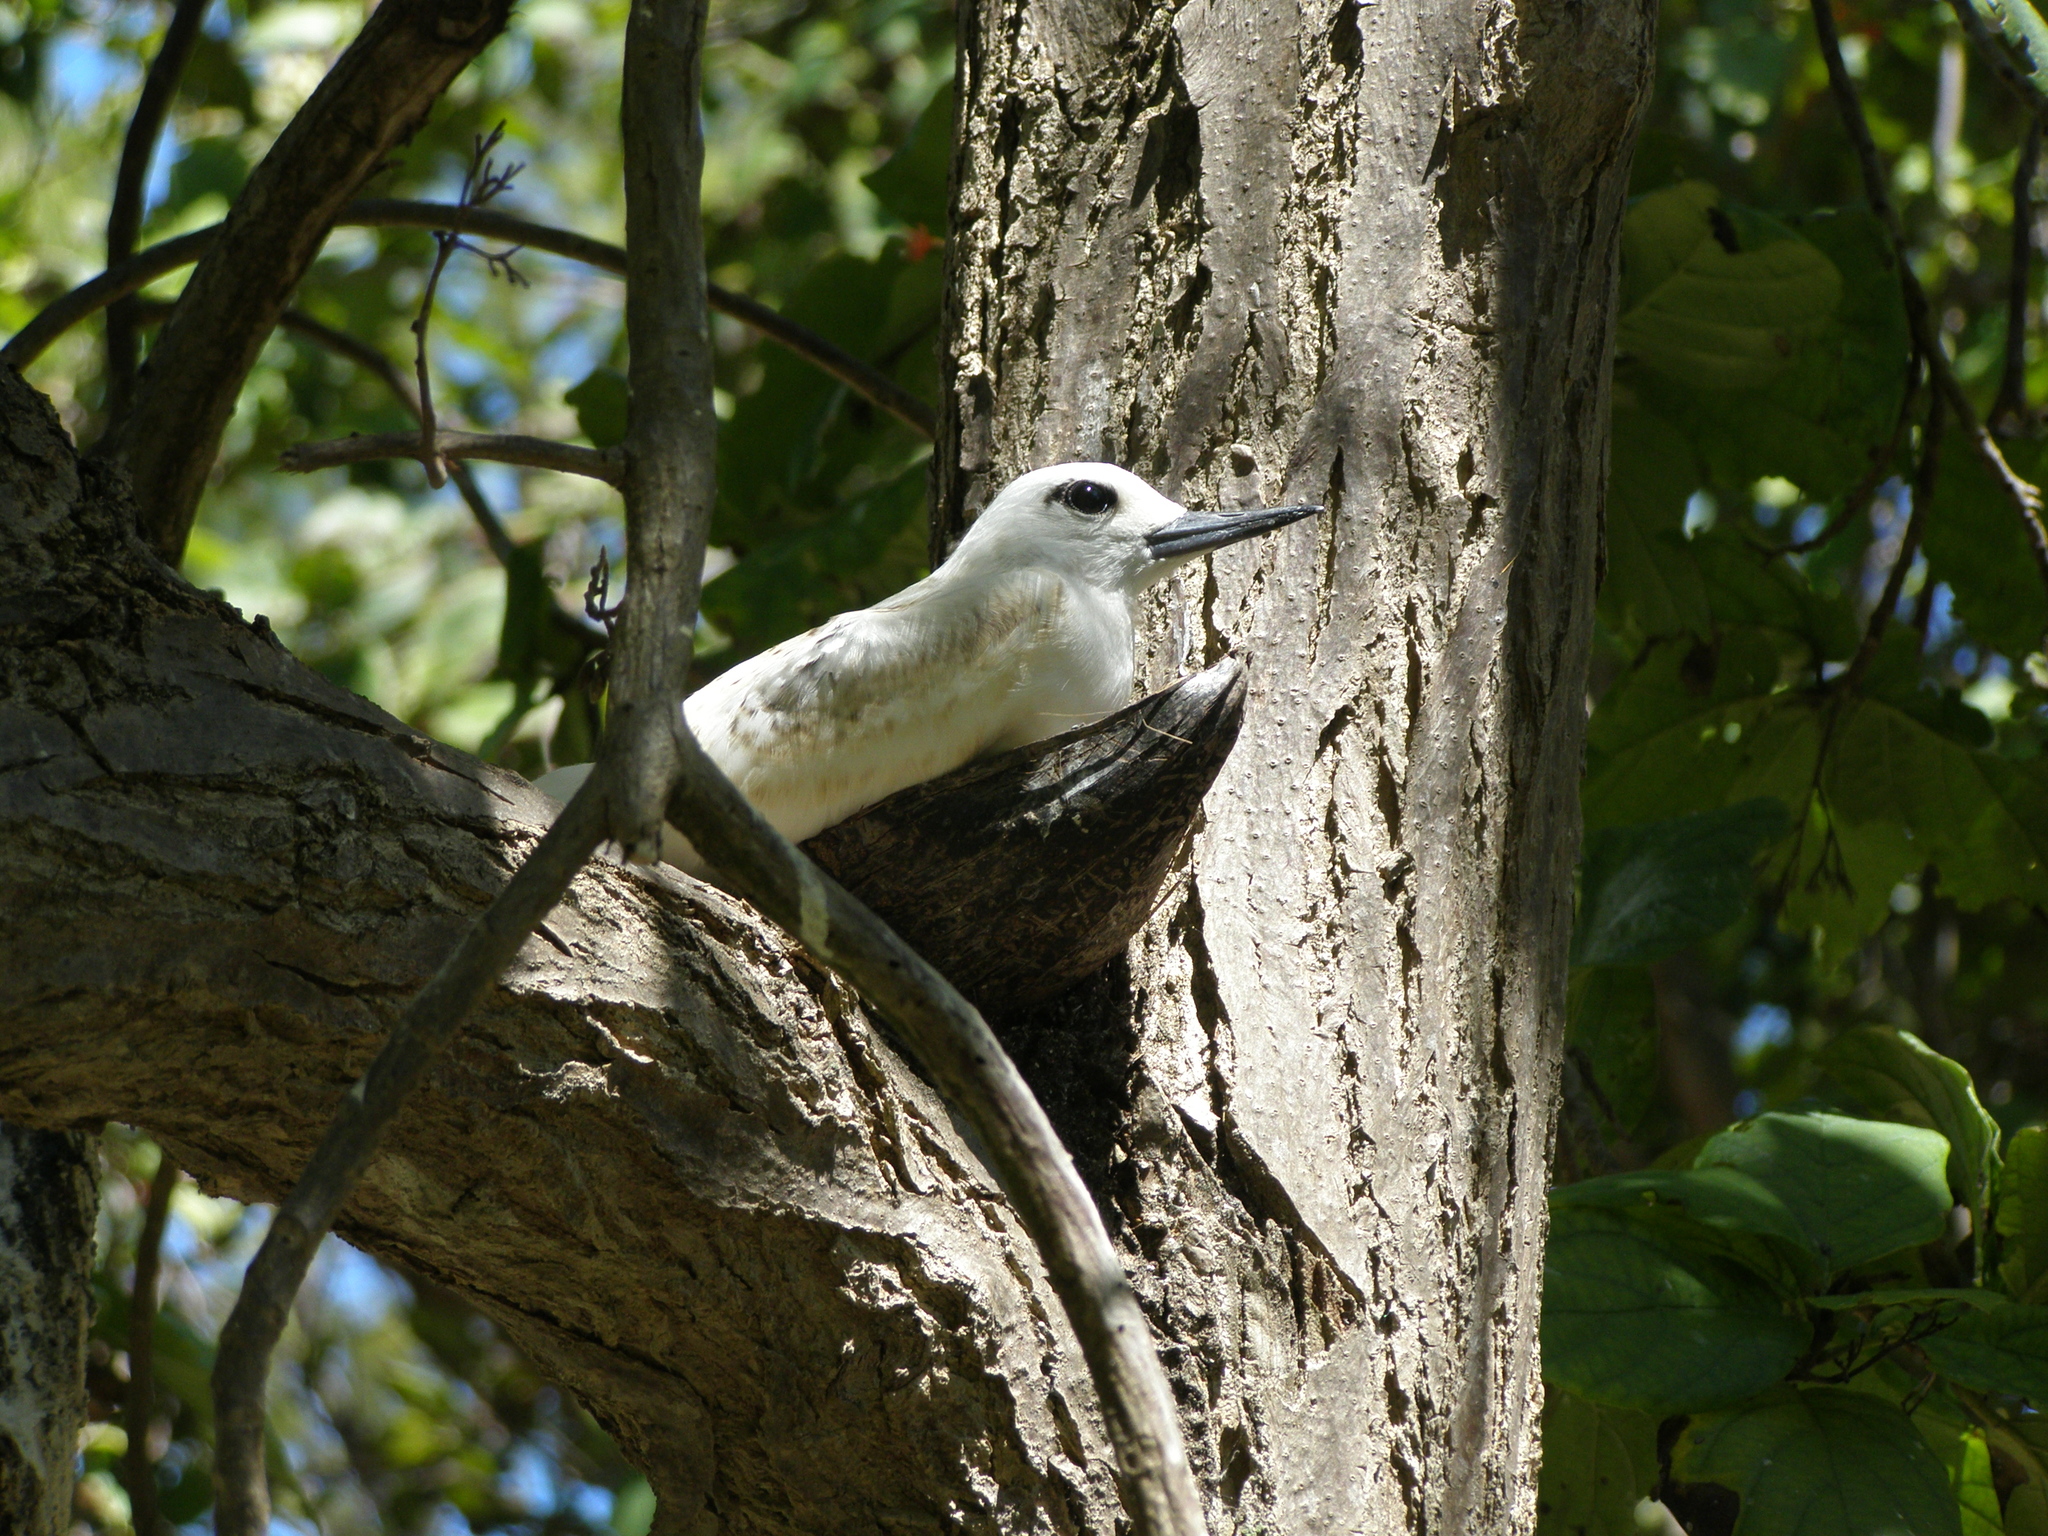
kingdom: Animalia
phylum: Chordata
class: Aves
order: Charadriiformes
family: Laridae
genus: Gygis
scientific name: Gygis alba
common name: White tern
